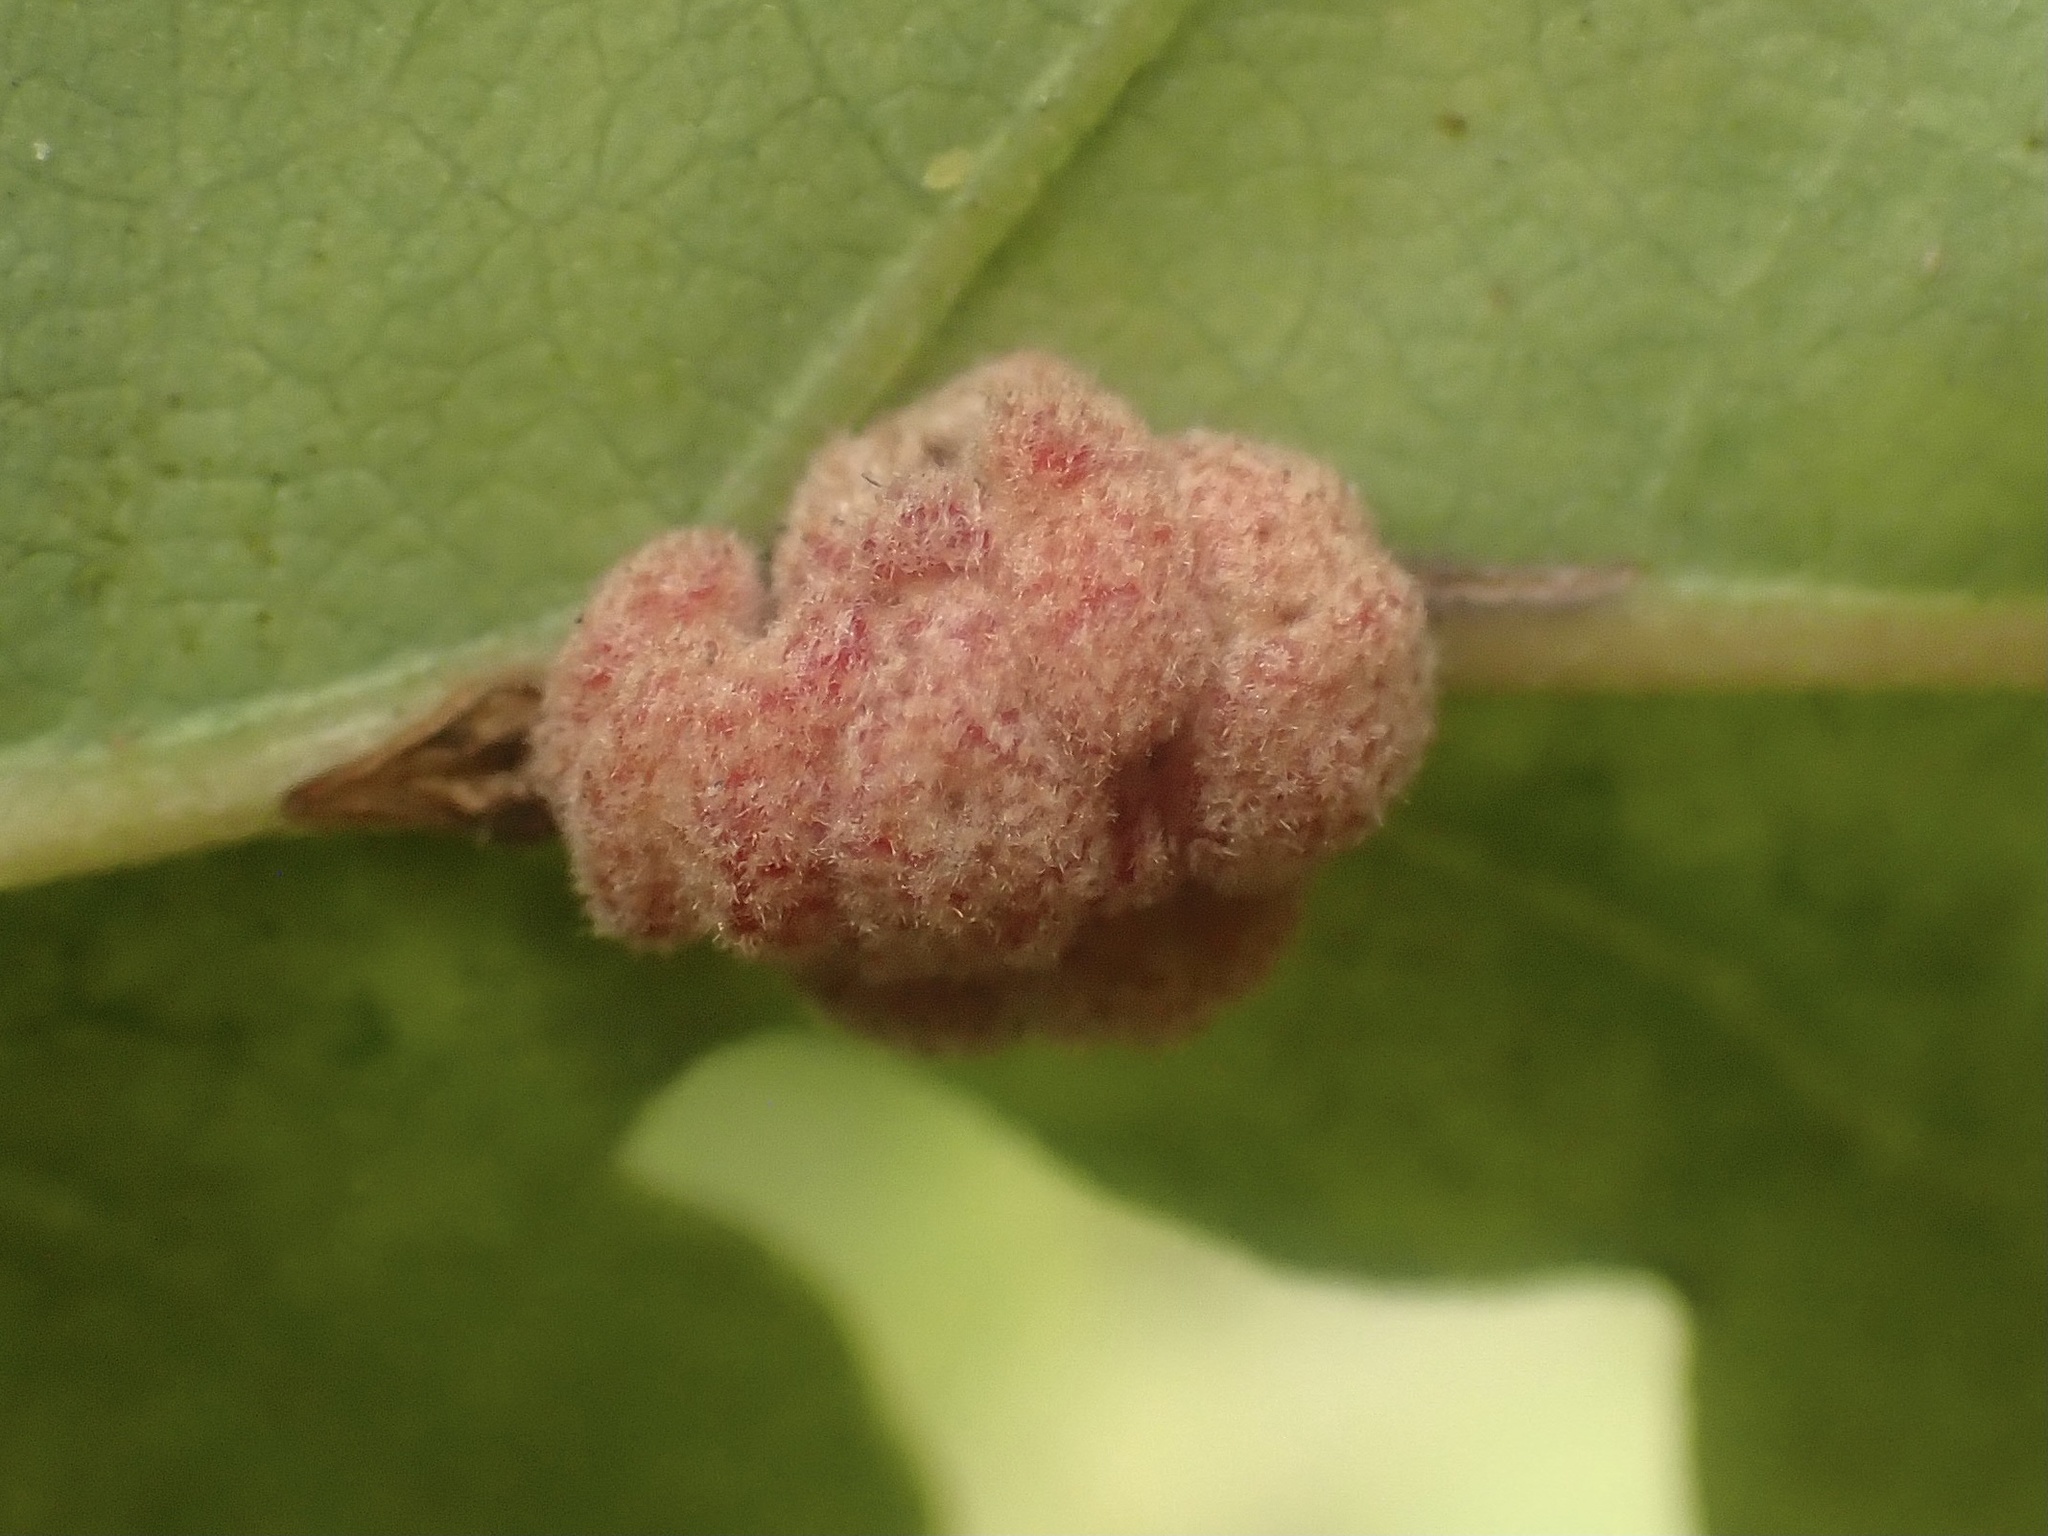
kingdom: Animalia
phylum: Arthropoda
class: Insecta
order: Hymenoptera
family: Cynipidae
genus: Andricus
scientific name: Andricus
